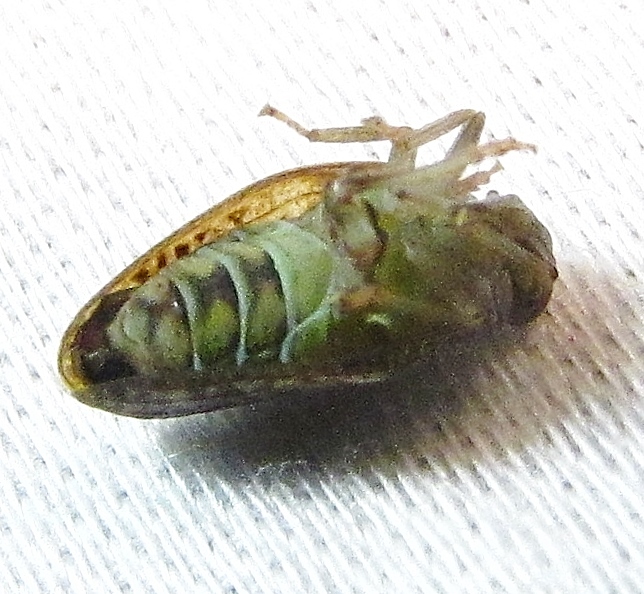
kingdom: Animalia
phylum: Arthropoda
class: Insecta
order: Hemiptera
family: Issidae
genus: Thionia
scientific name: Thionia bullata
